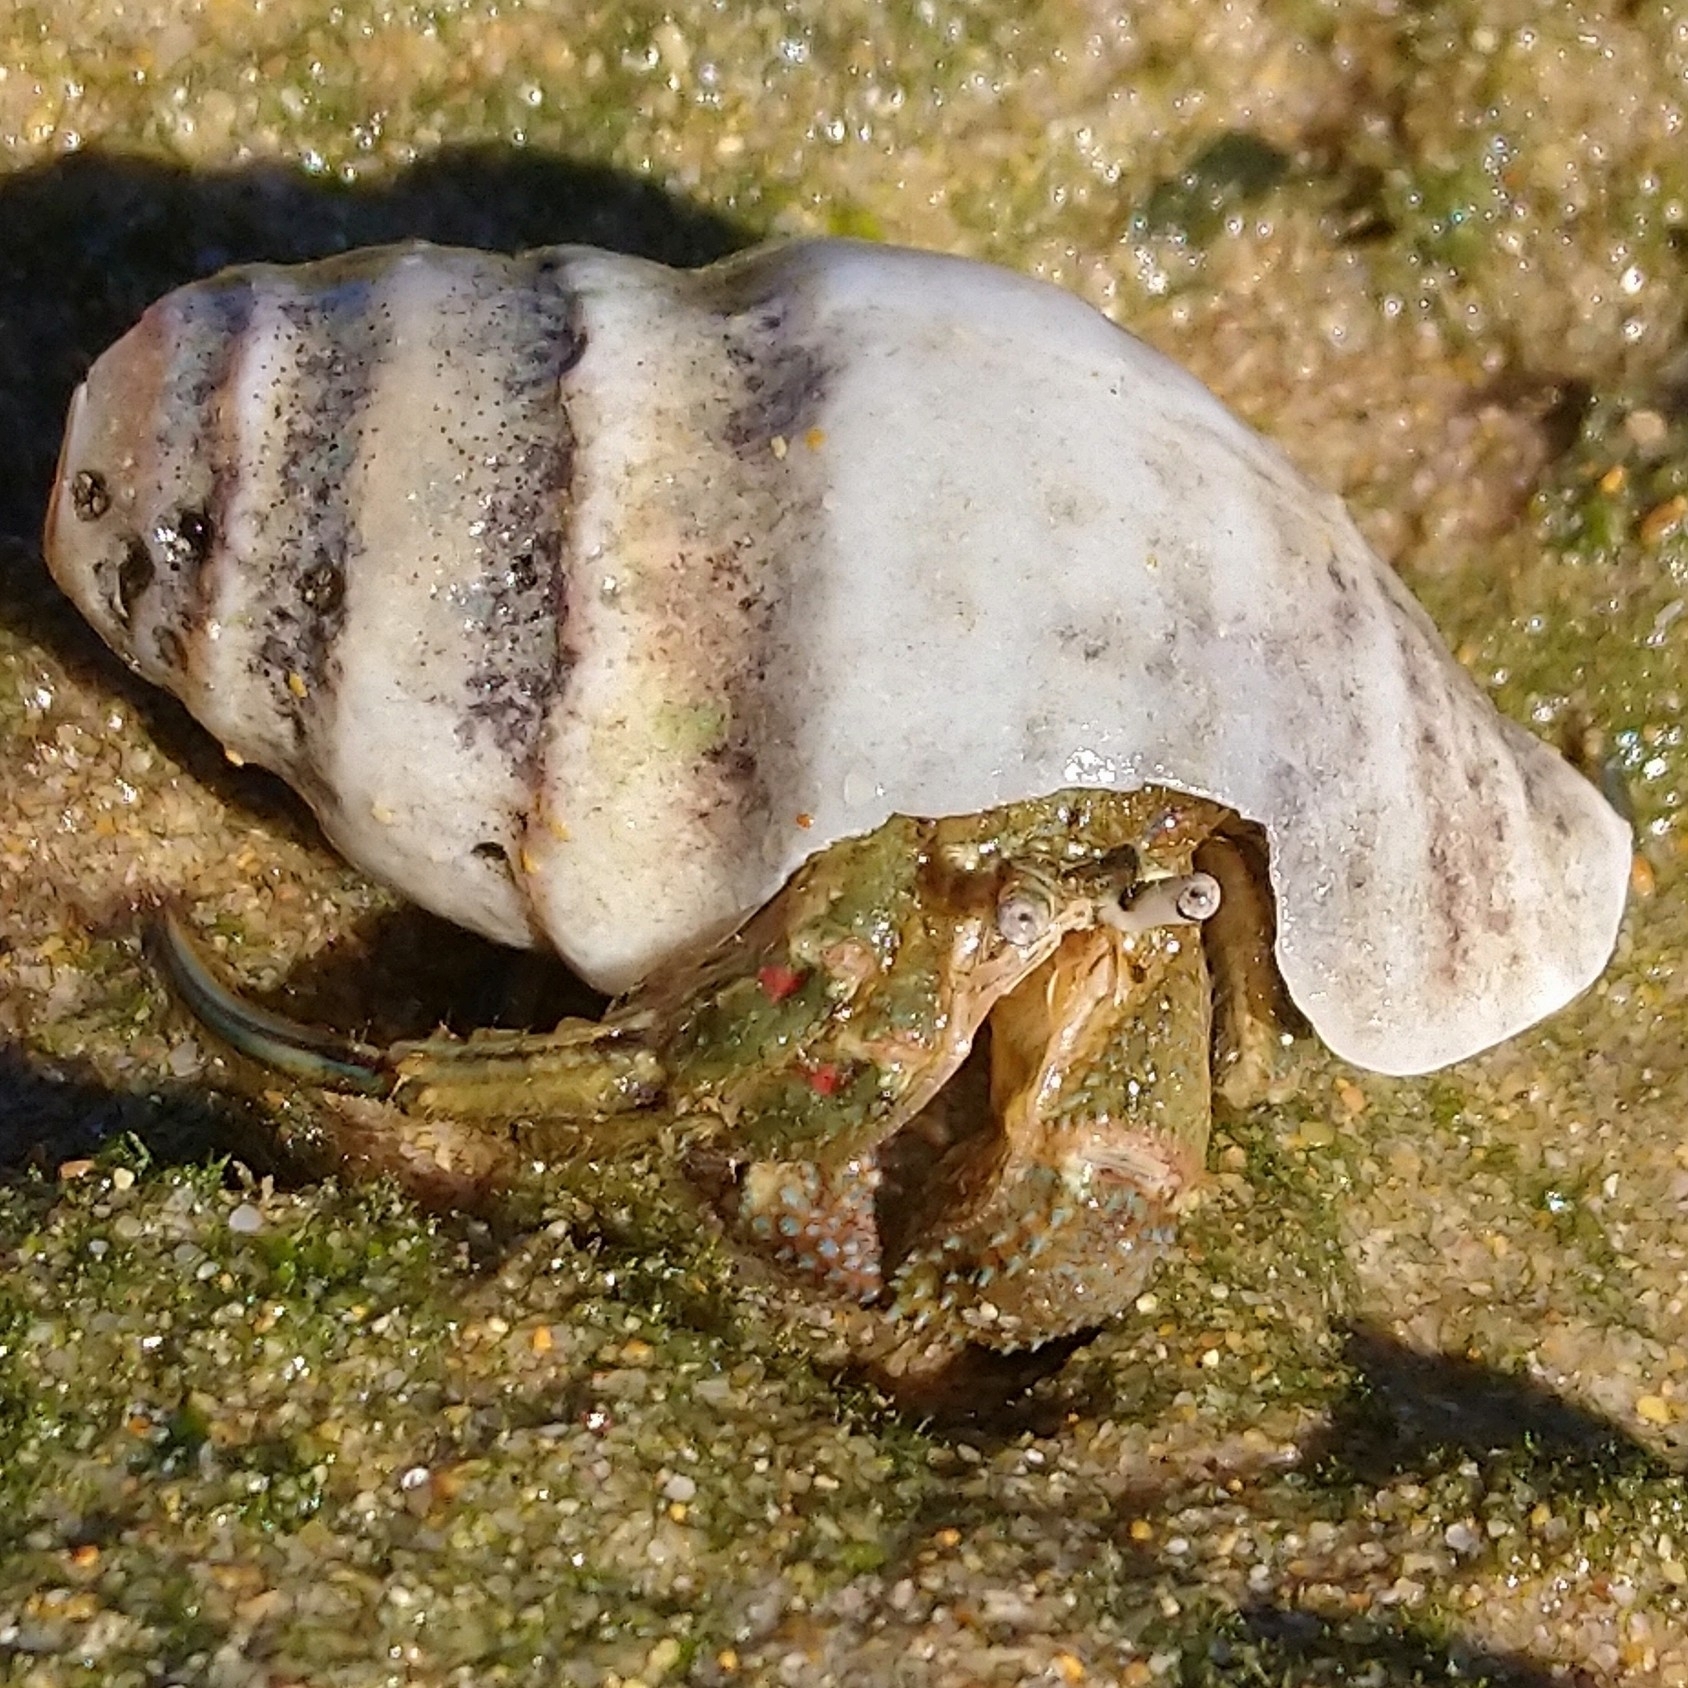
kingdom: Animalia
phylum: Arthropoda
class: Malacostraca
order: Decapoda
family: Diogenidae
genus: Diogenes
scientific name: Diogenes brevirostris
